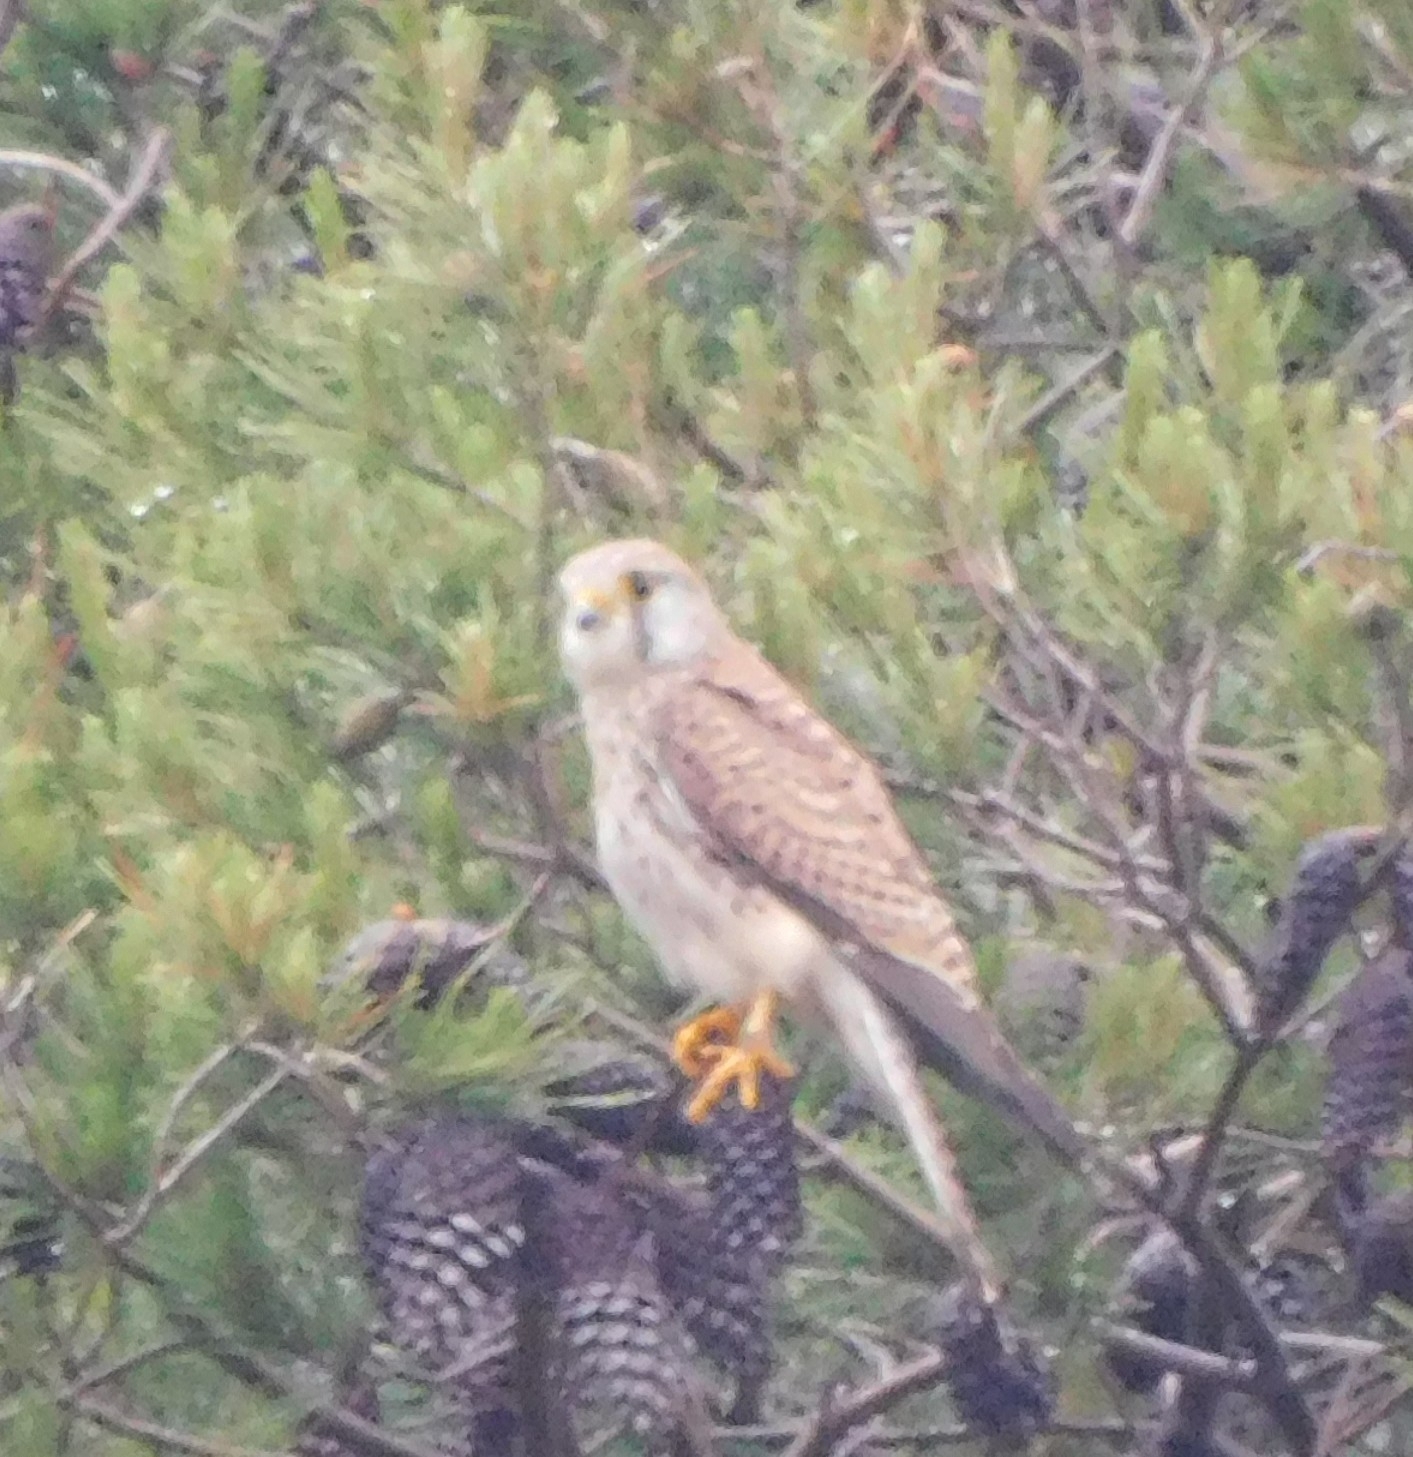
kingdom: Animalia
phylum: Chordata
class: Aves
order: Falconiformes
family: Falconidae
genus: Falco
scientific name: Falco tinnunculus
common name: Common kestrel
